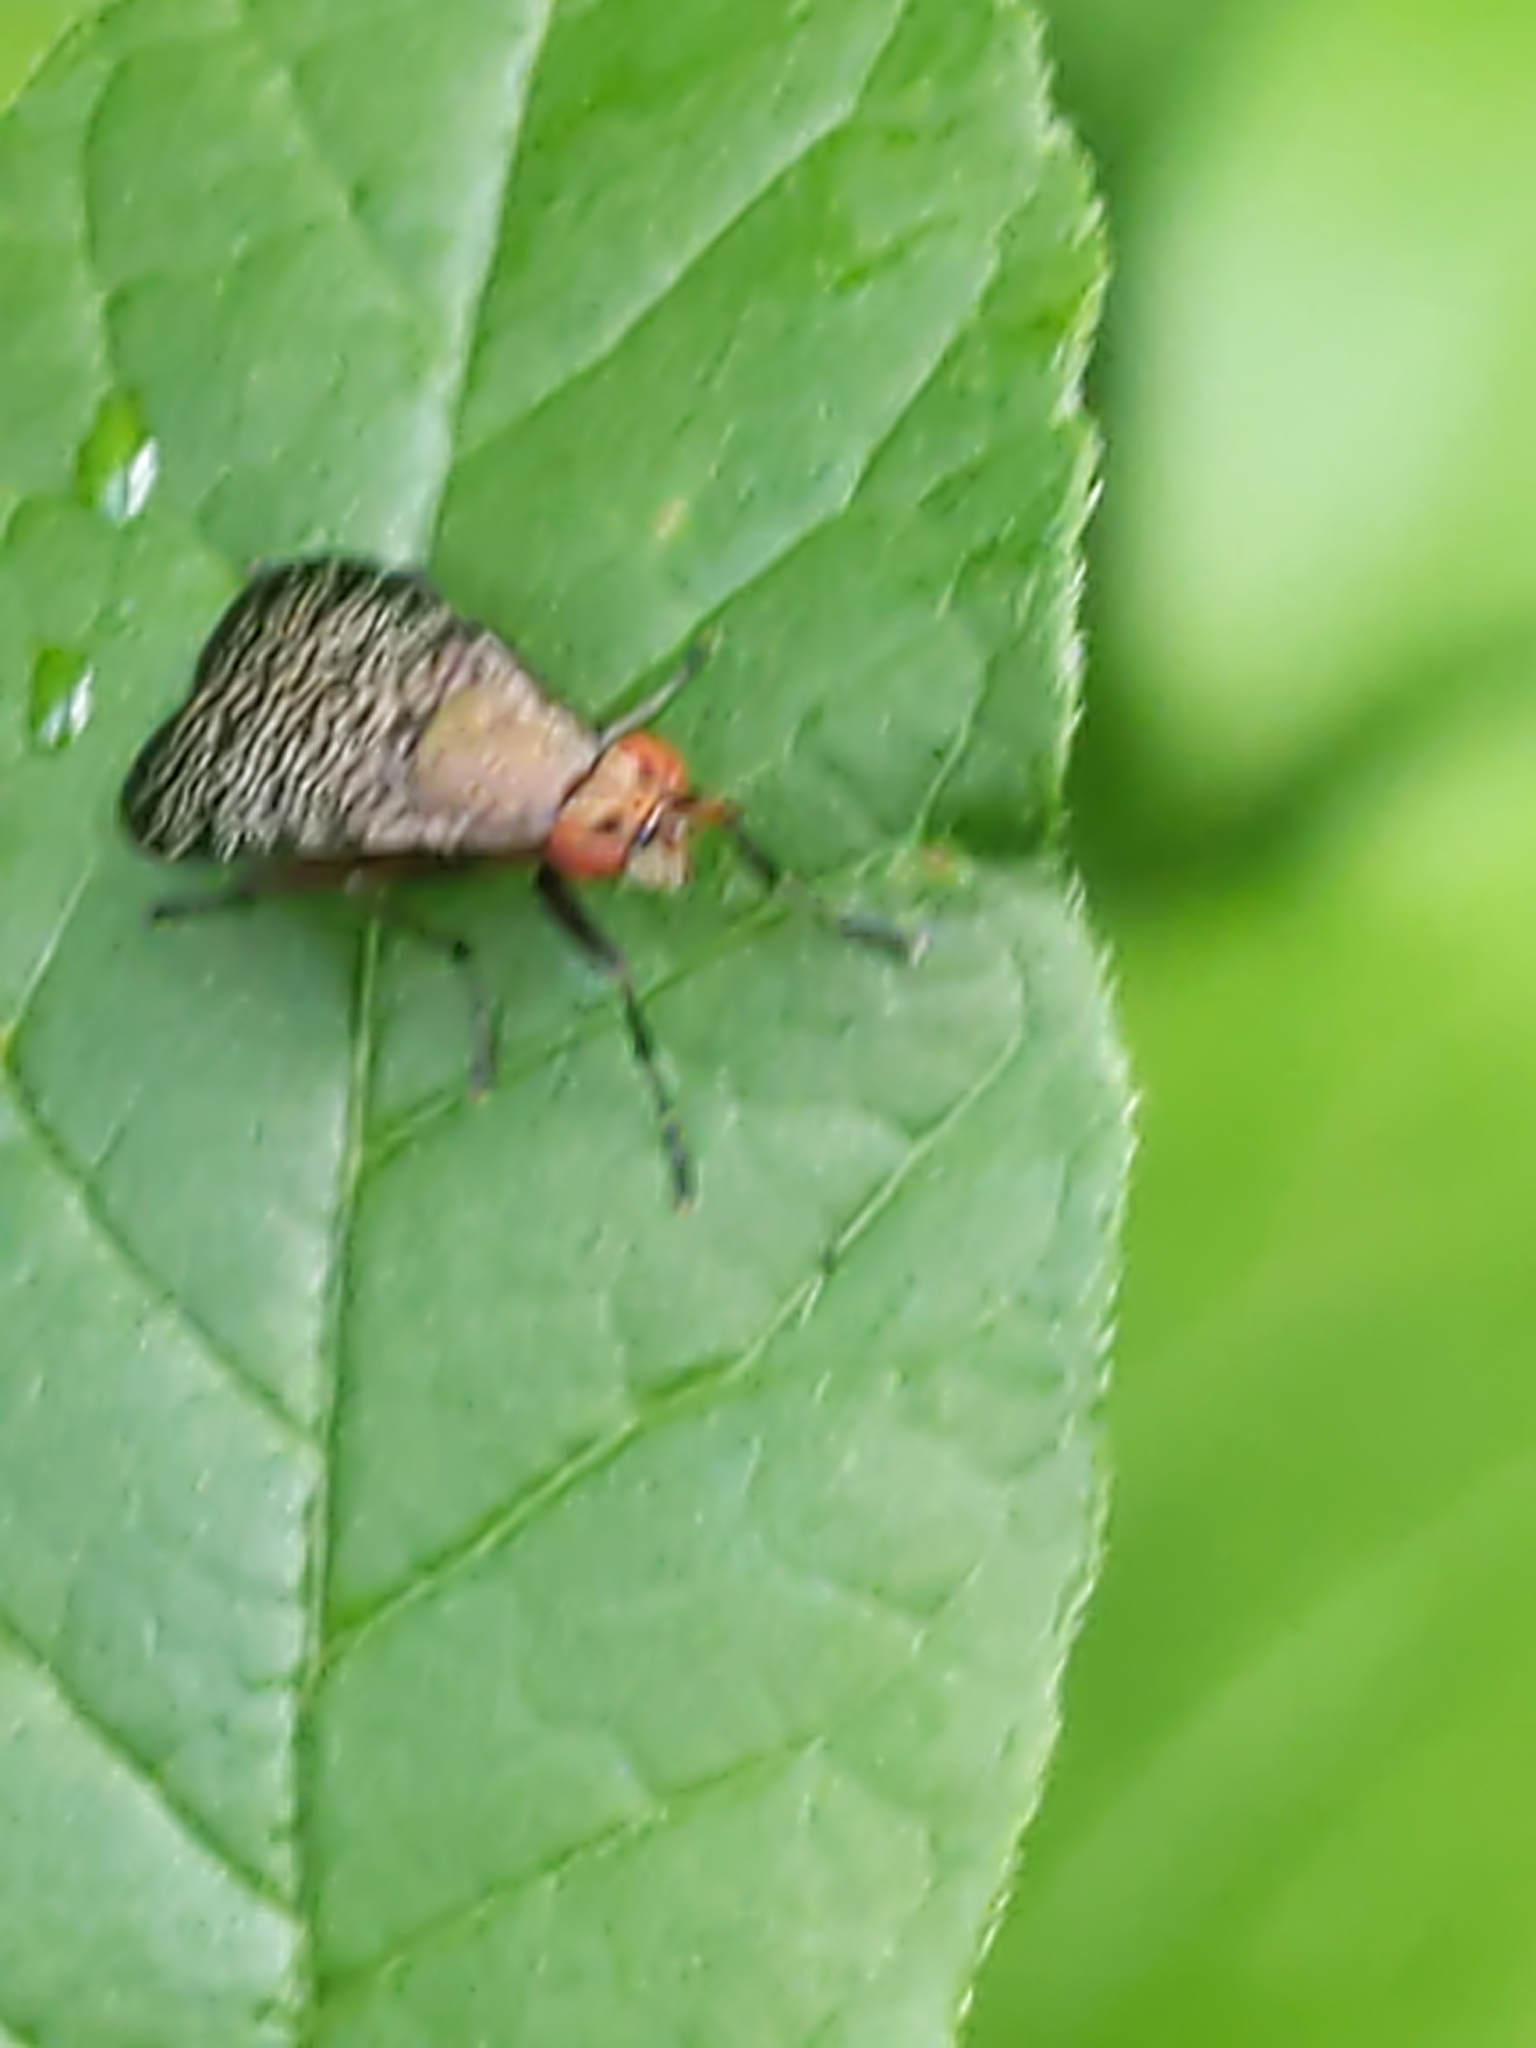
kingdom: Animalia
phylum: Arthropoda
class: Insecta
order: Diptera
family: Sciomyzidae
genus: Euthycera
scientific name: Euthycera flavescens
